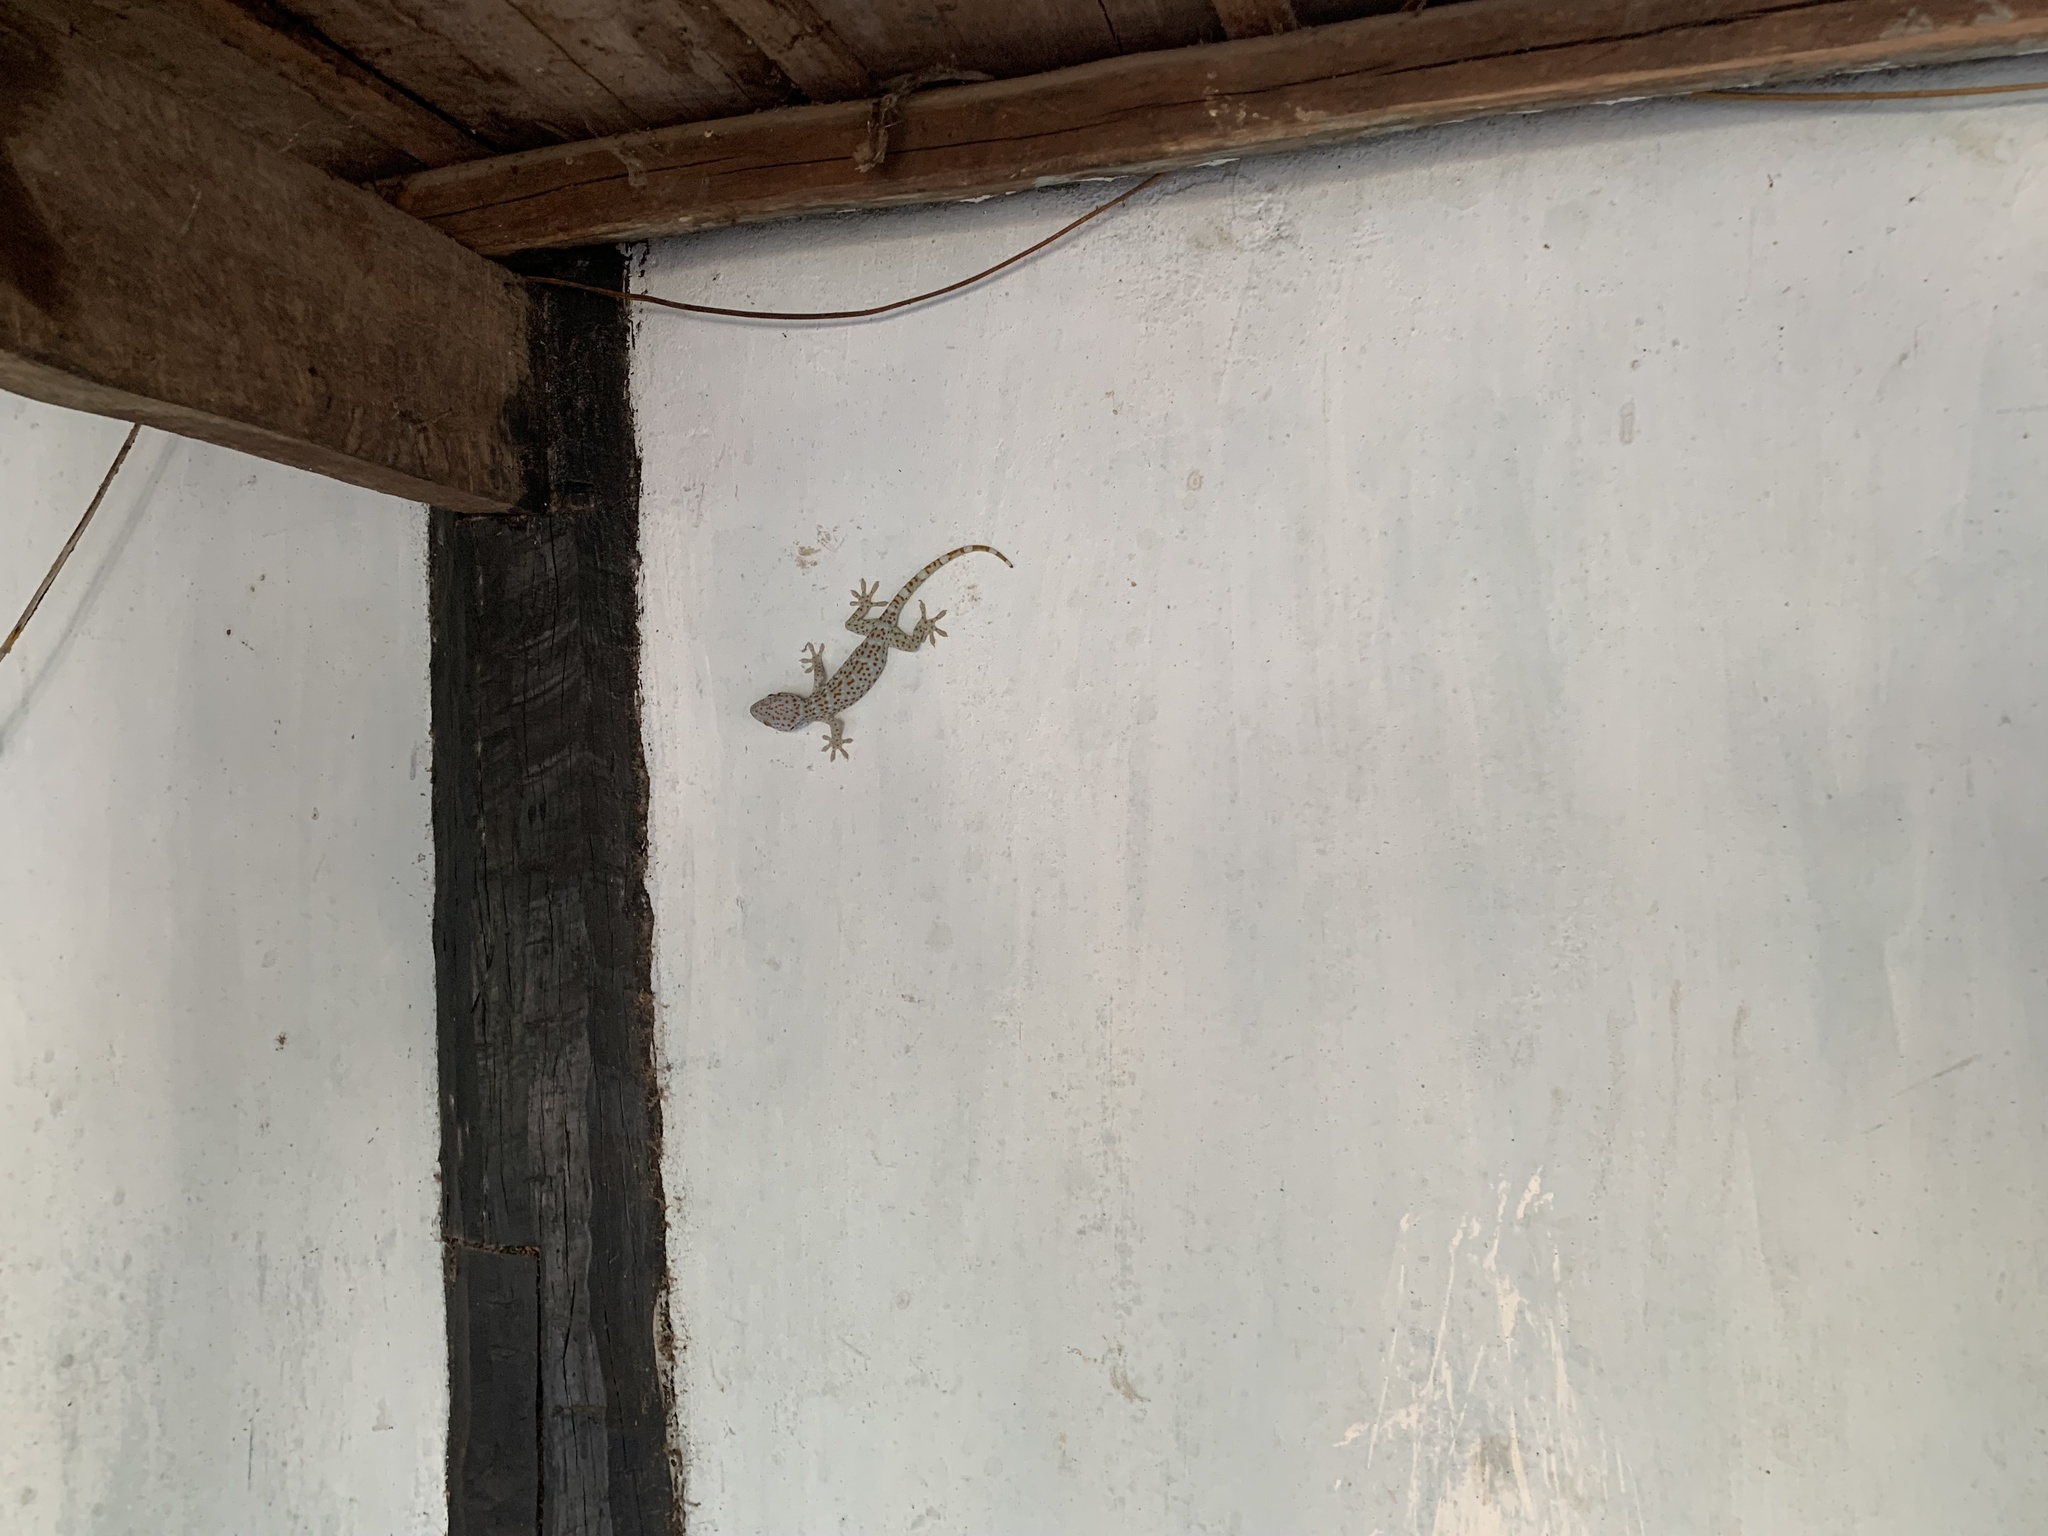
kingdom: Animalia
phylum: Chordata
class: Squamata
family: Gekkonidae
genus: Gekko
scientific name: Gekko gecko
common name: Tokay gecko
